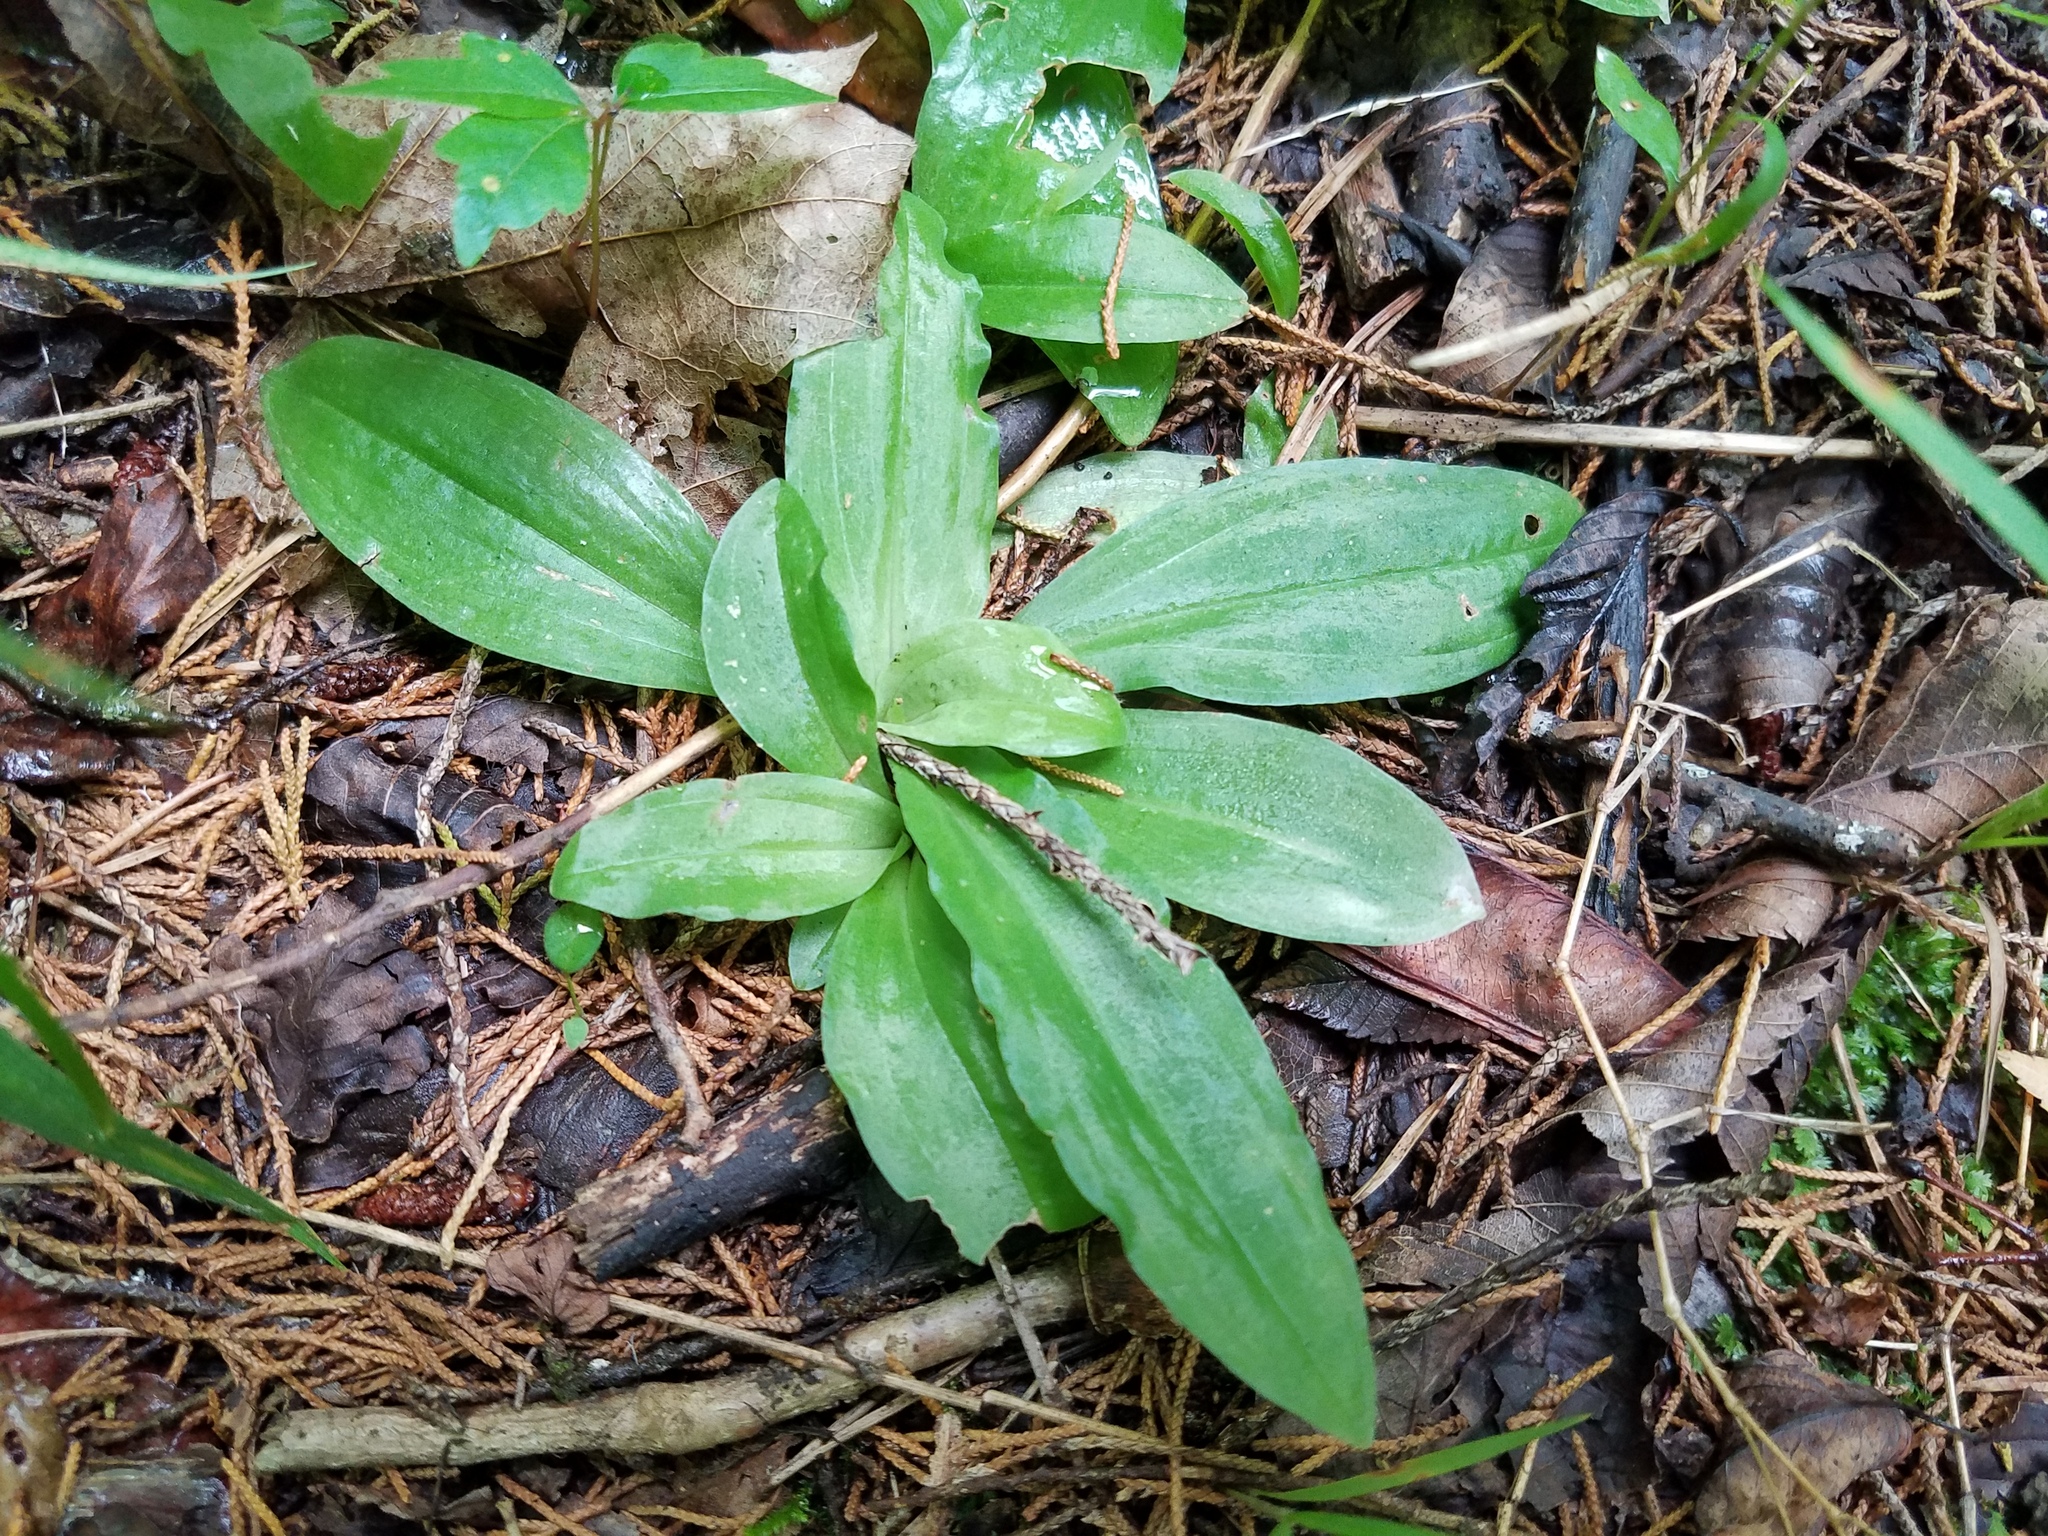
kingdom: Plantae
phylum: Tracheophyta
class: Liliopsida
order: Asparagales
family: Orchidaceae
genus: Ponthieva
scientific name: Ponthieva racemosa
